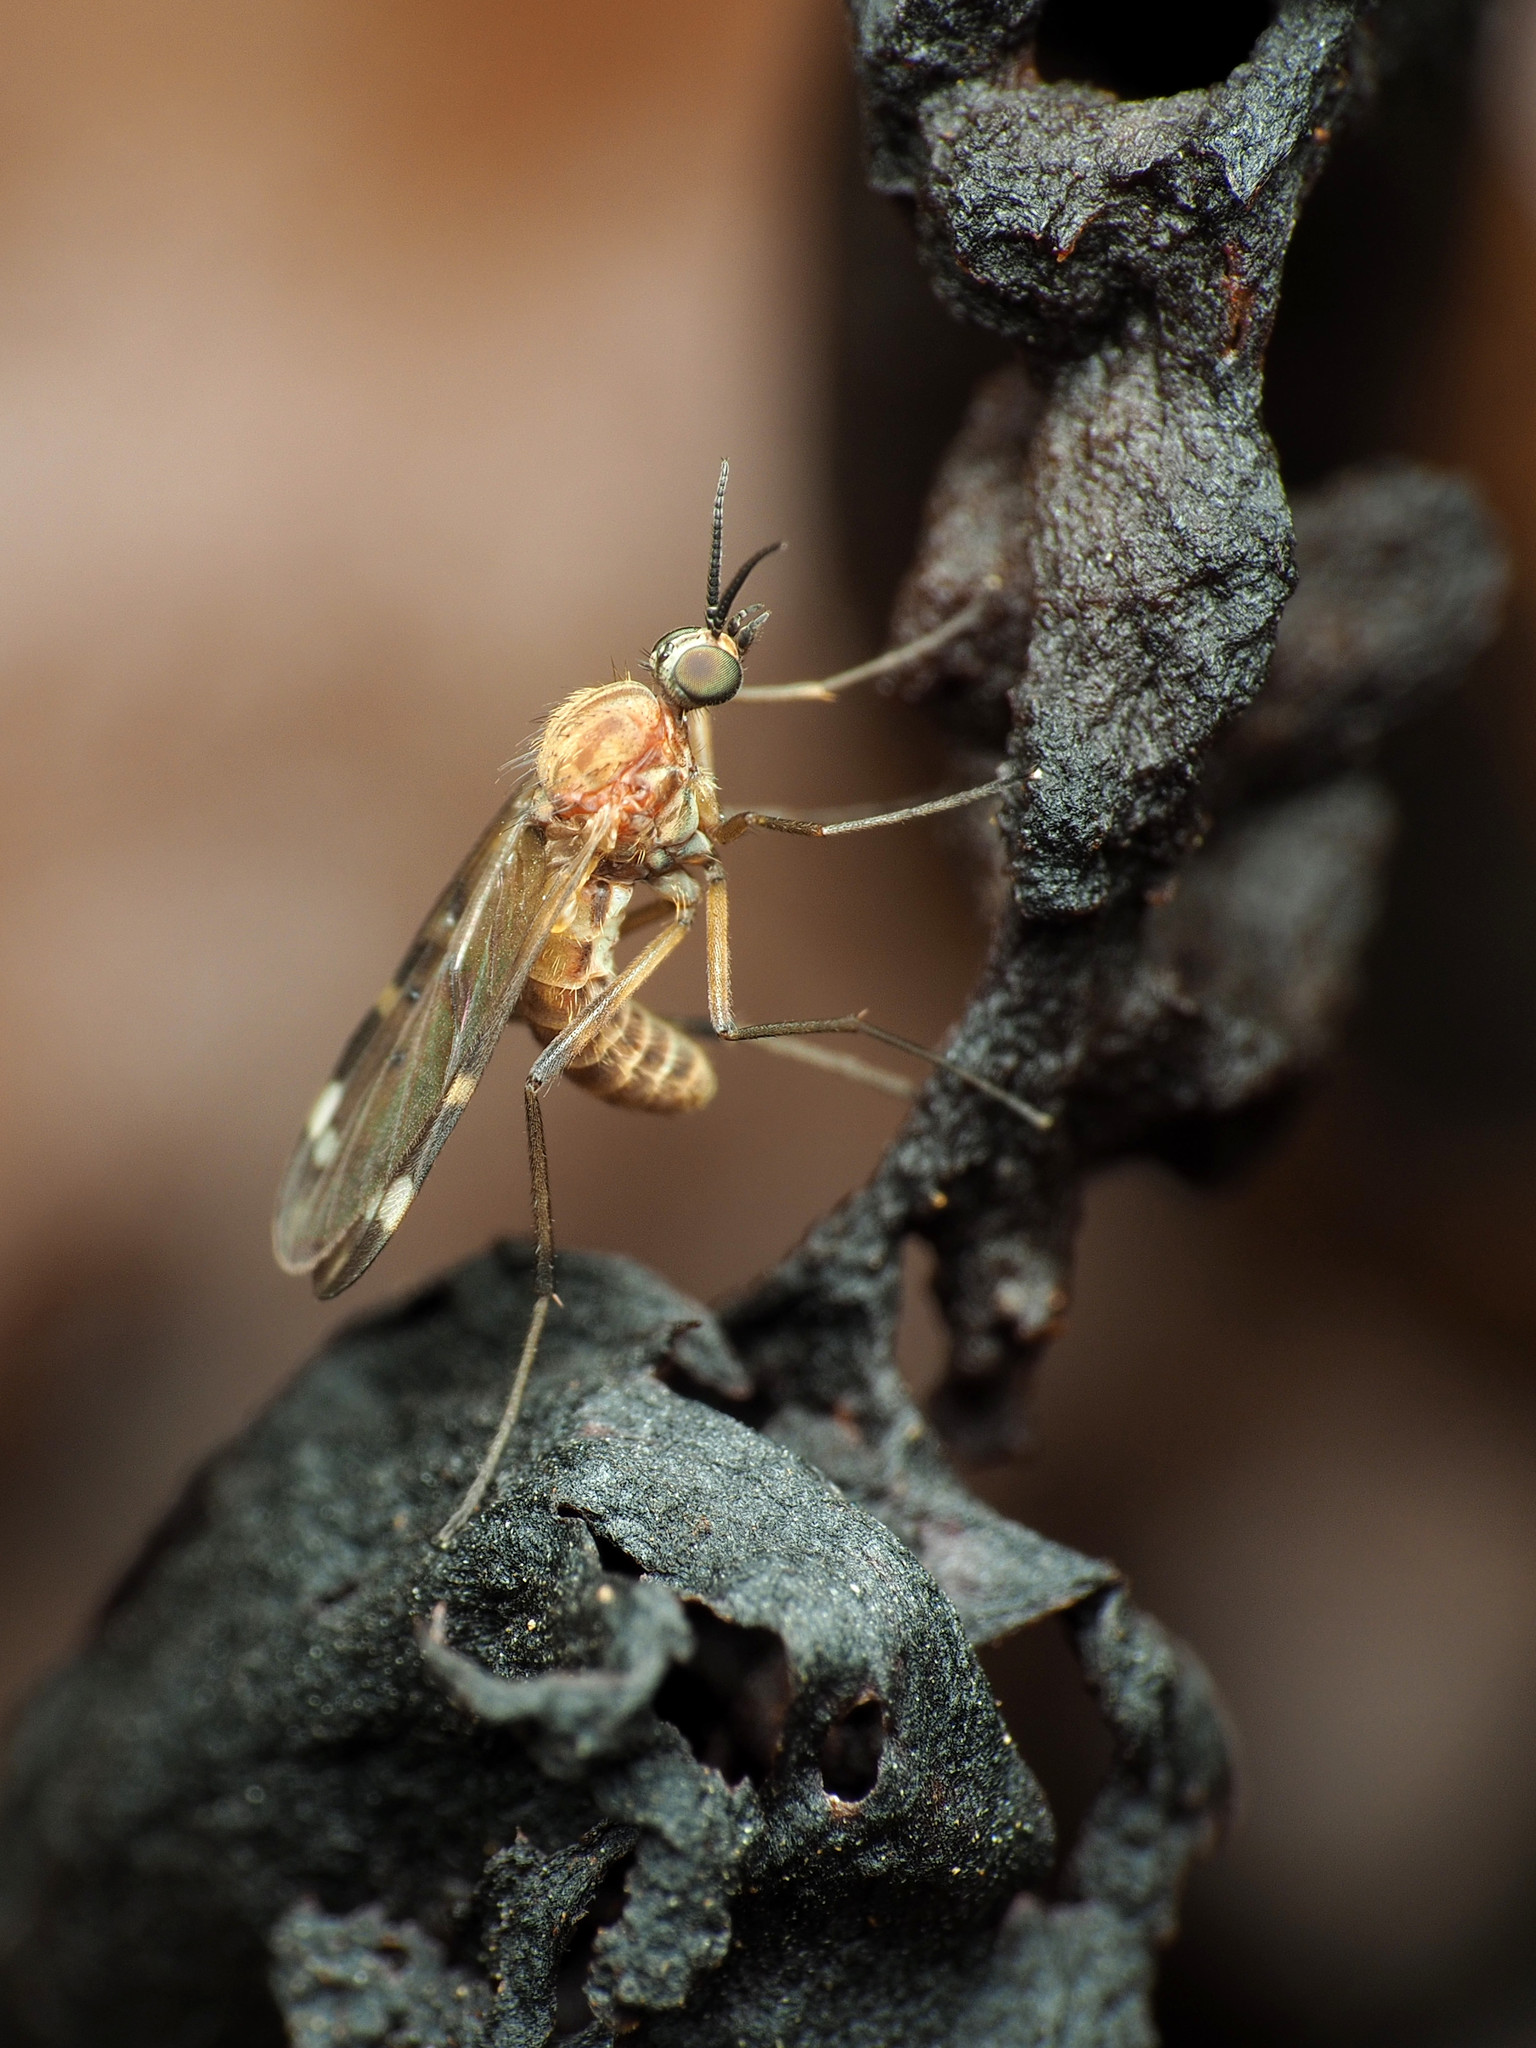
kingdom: Animalia
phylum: Arthropoda
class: Insecta
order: Diptera
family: Anisopodidae
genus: Sylvicola
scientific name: Sylvicola alternata
